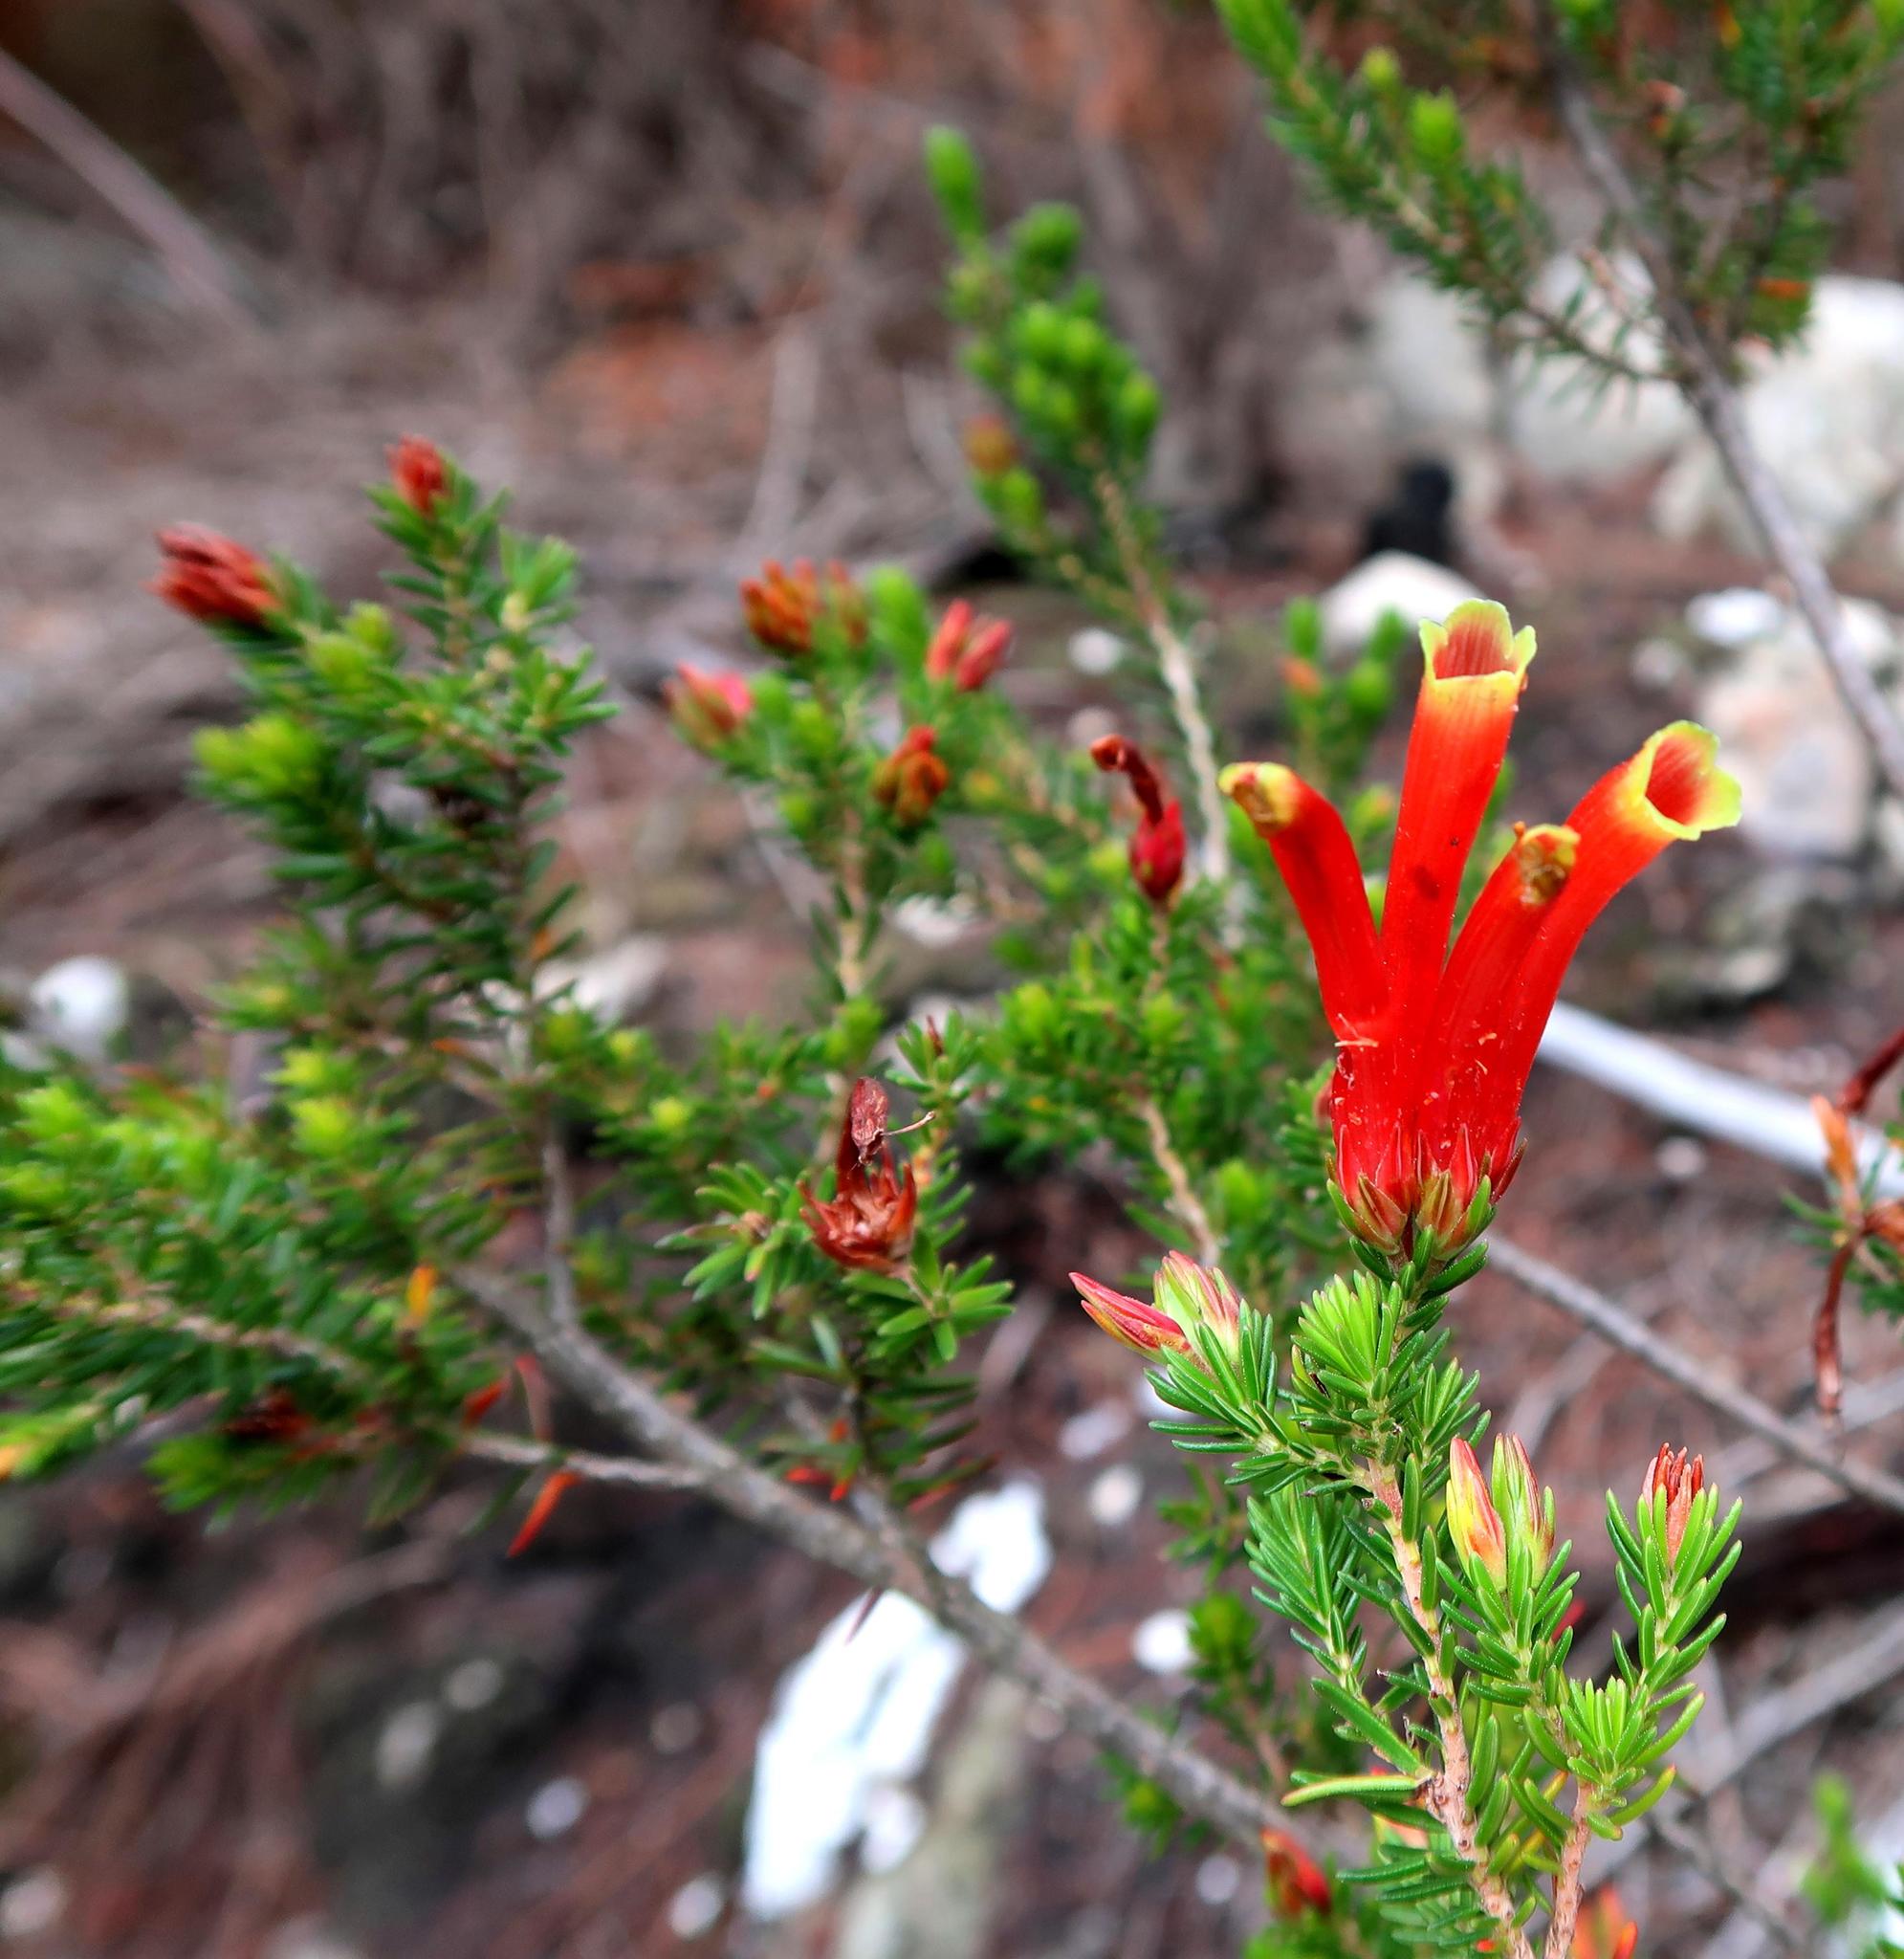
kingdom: Plantae
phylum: Tracheophyta
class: Magnoliopsida
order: Ericales
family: Ericaceae
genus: Erica
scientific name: Erica unicolor
